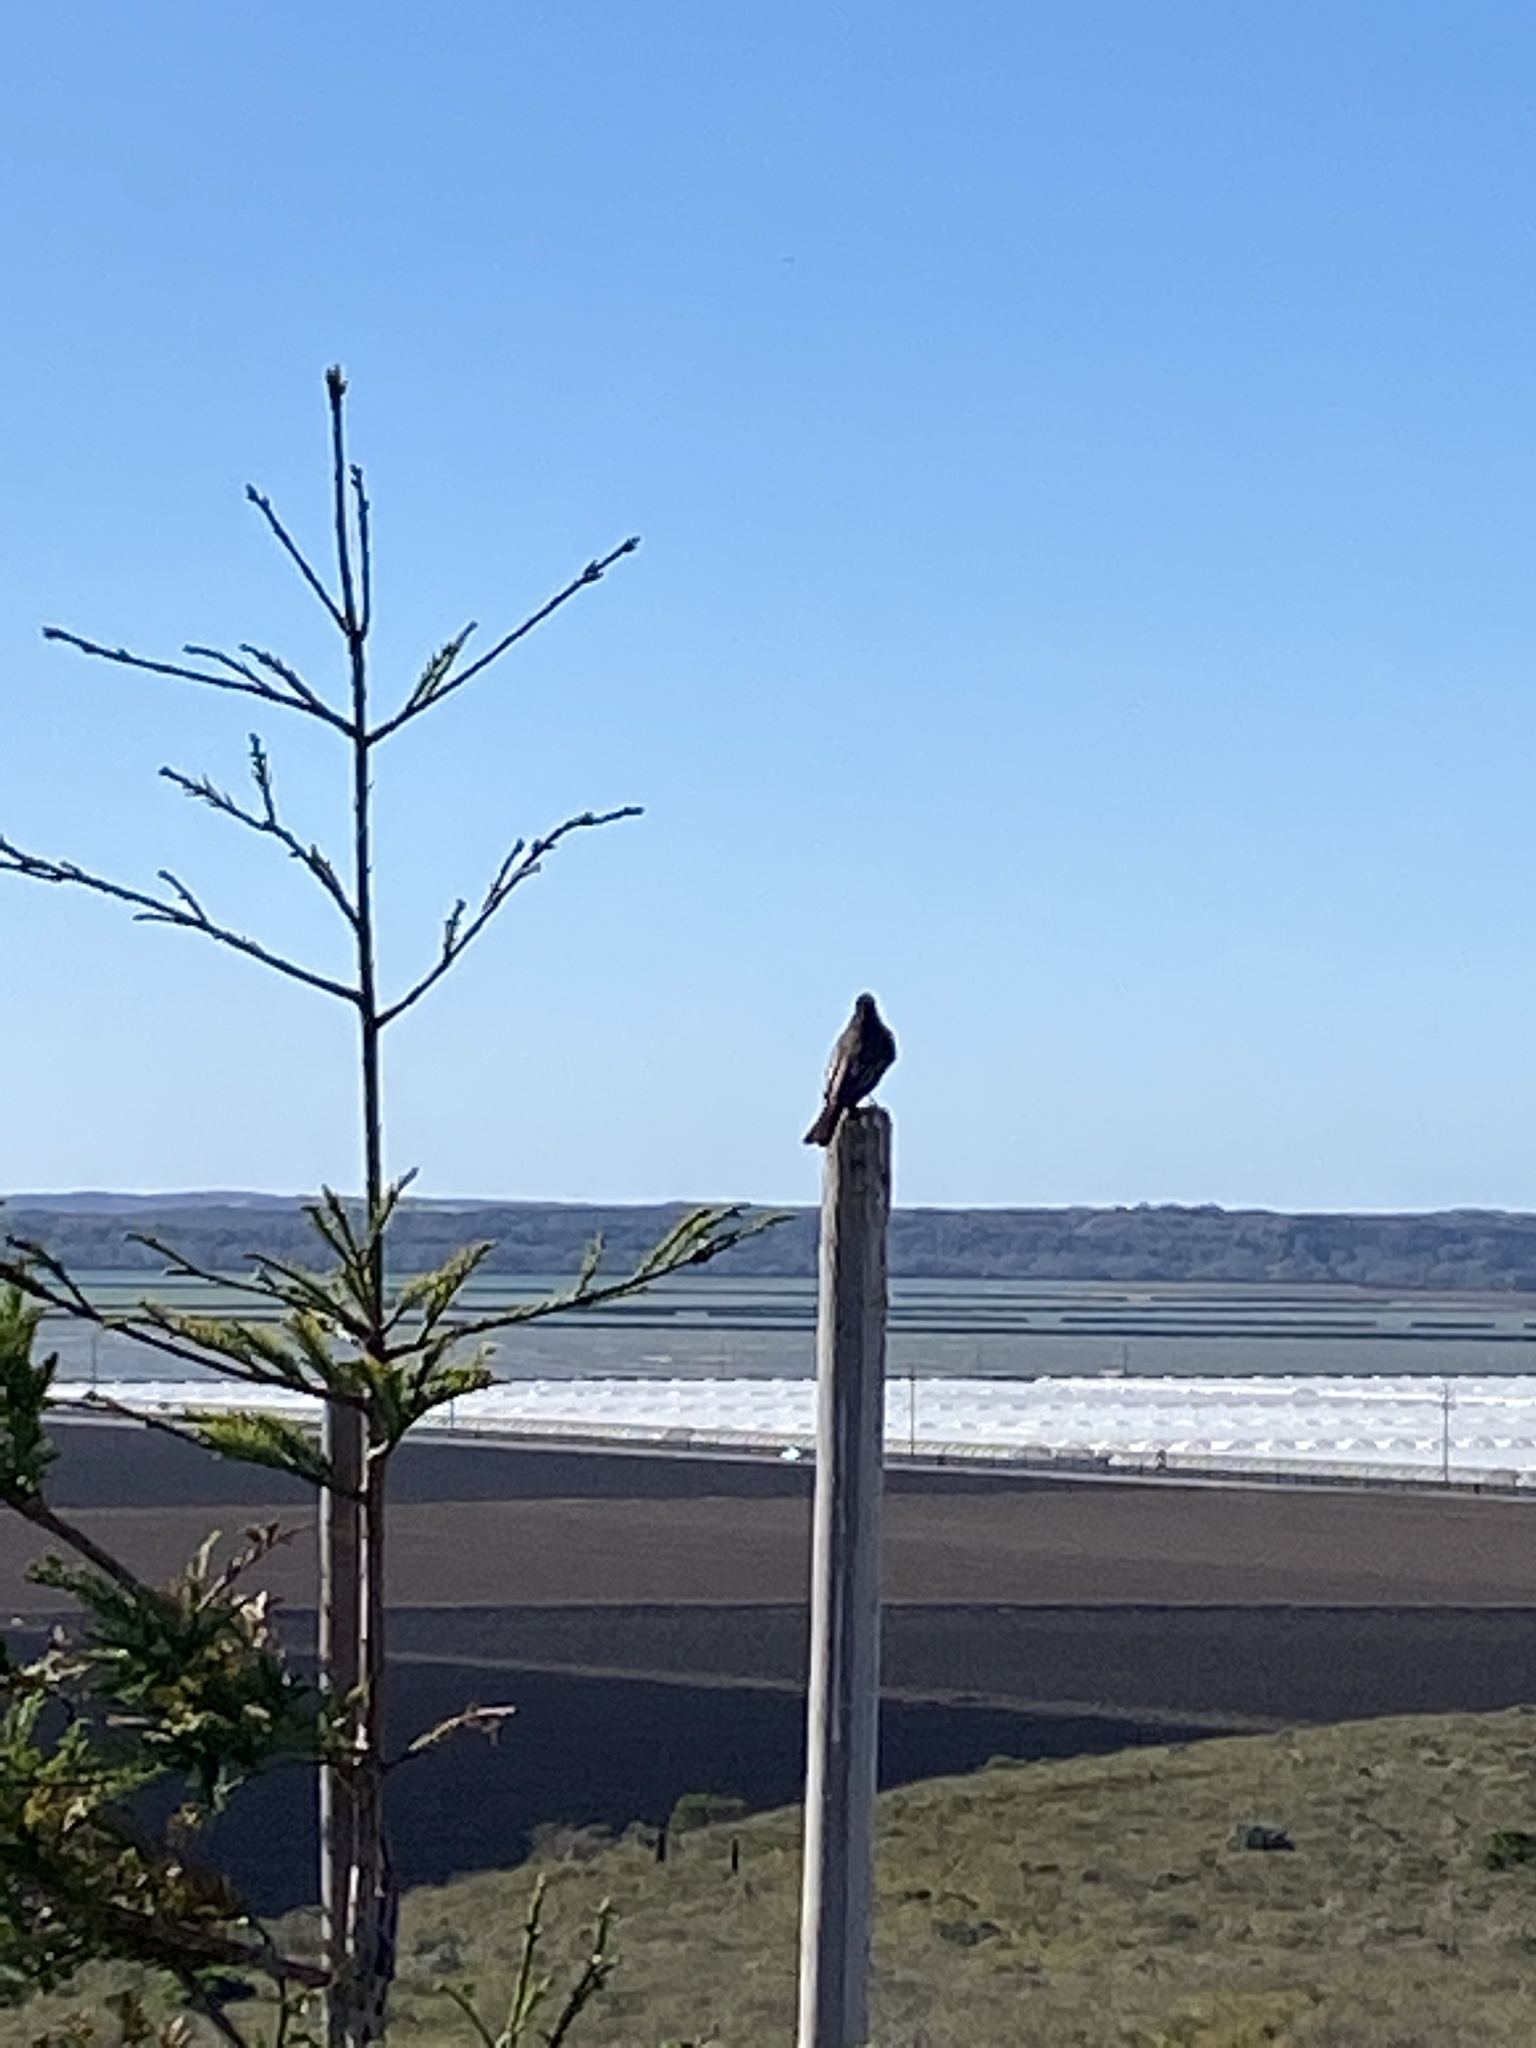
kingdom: Animalia
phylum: Chordata
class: Aves
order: Passeriformes
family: Tyrannidae
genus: Sayornis
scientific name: Sayornis nigricans
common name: Black phoebe
